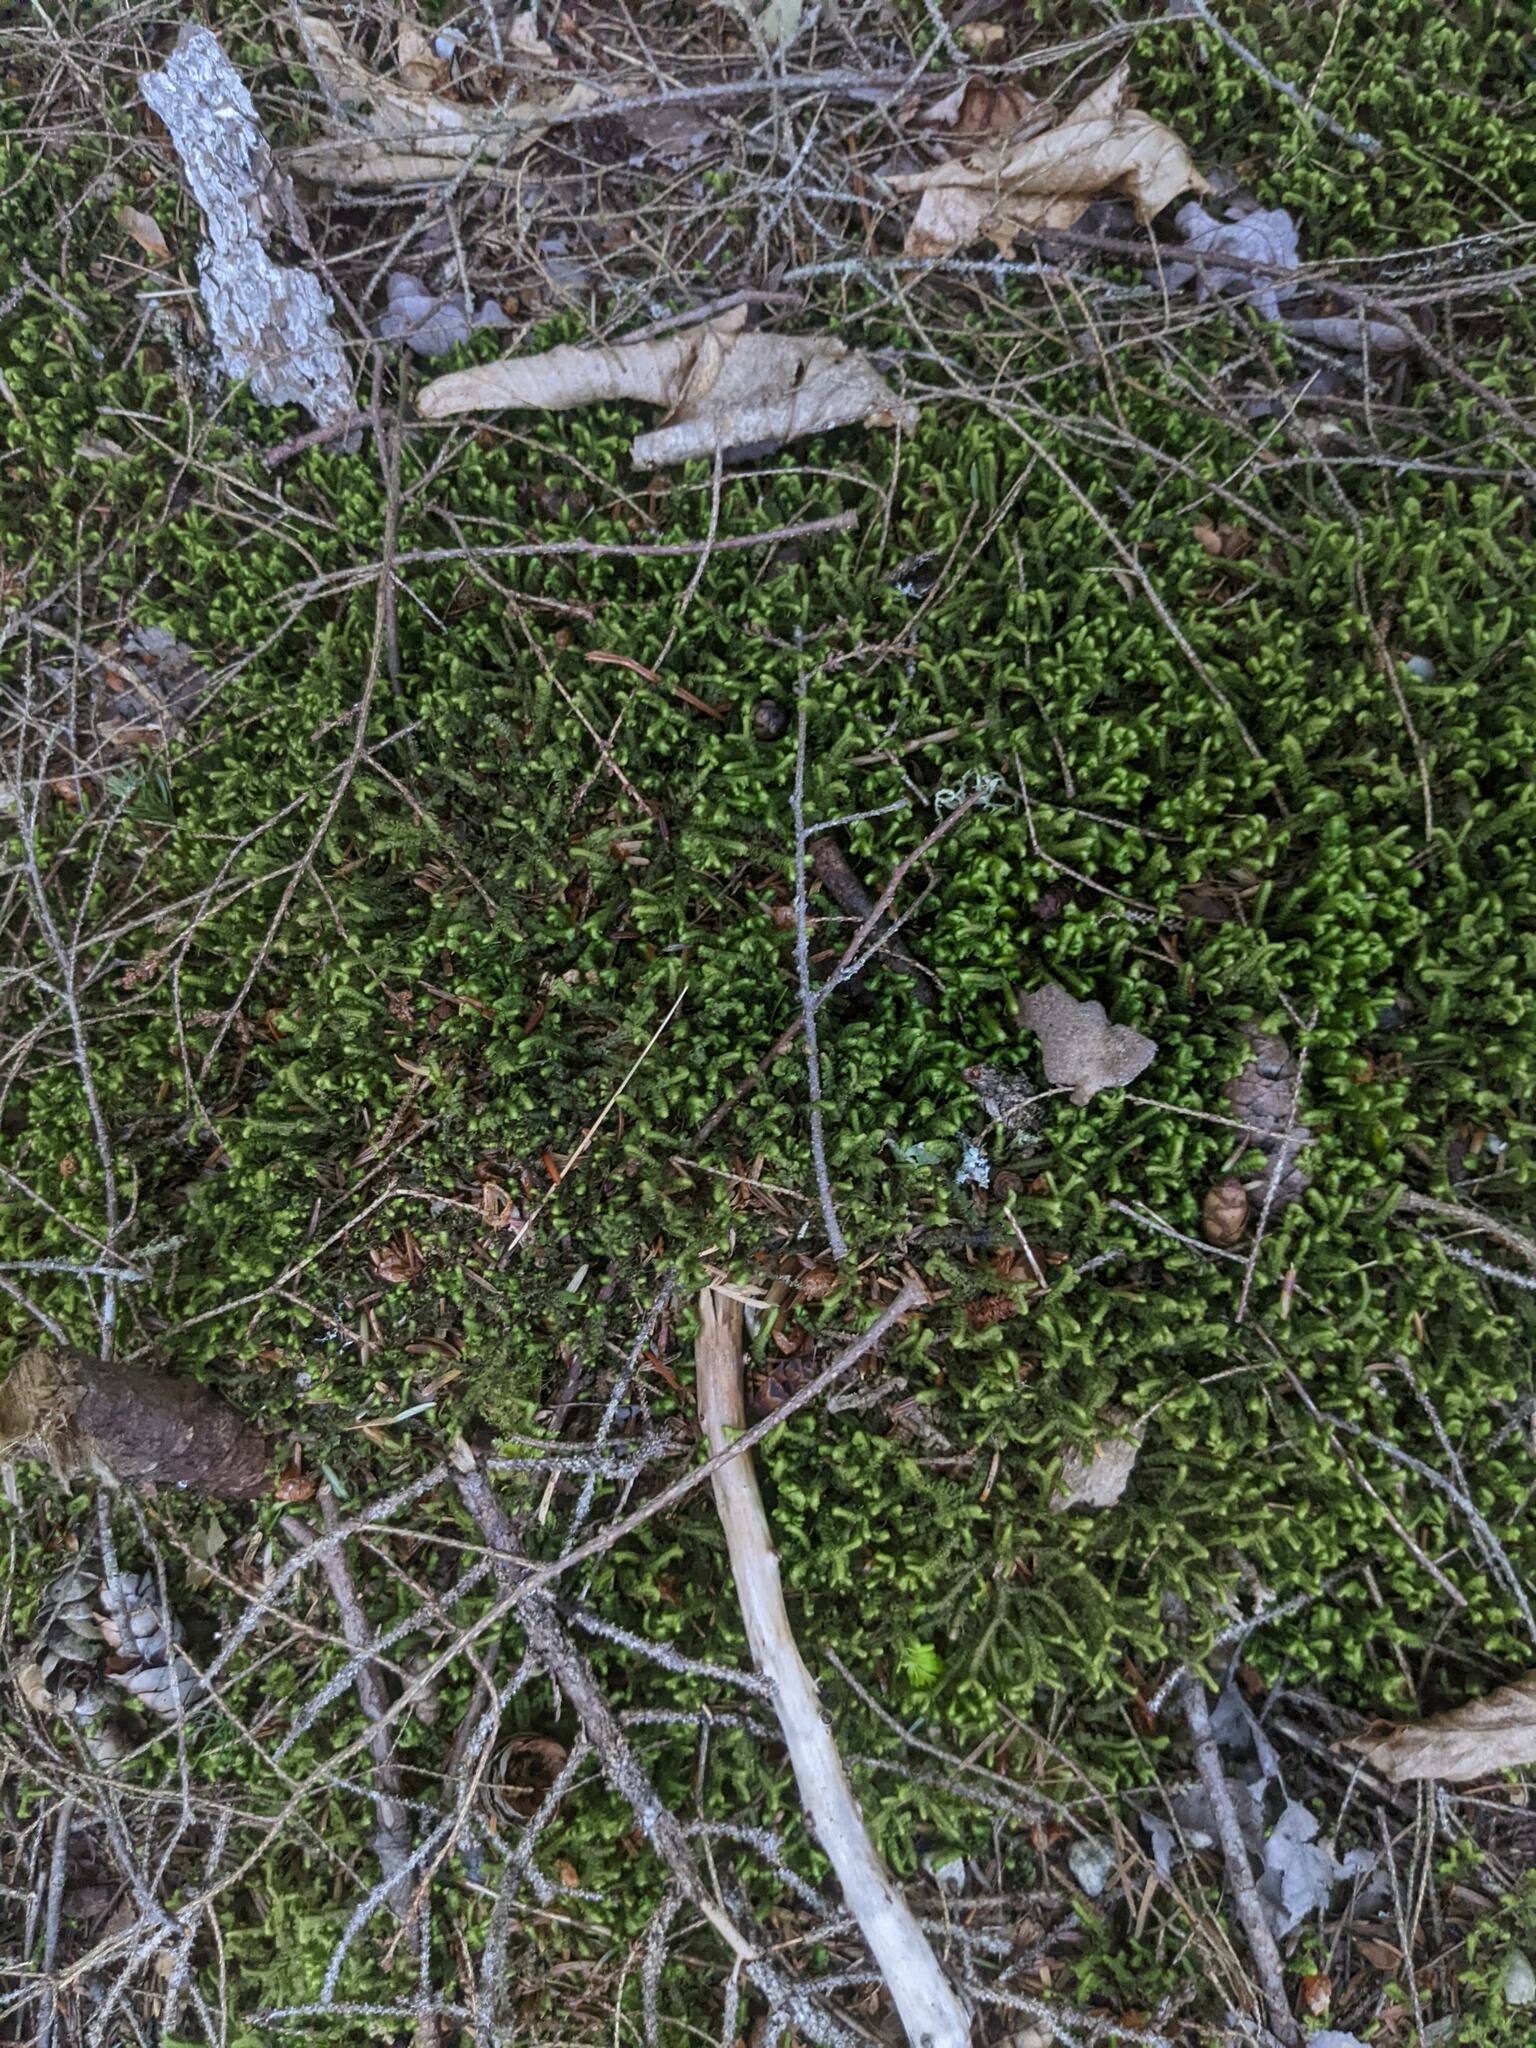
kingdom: Plantae
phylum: Marchantiophyta
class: Jungermanniopsida
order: Jungermanniales
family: Lepidoziaceae
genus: Bazzania
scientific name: Bazzania trilobata
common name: Three-lobed whipwort
